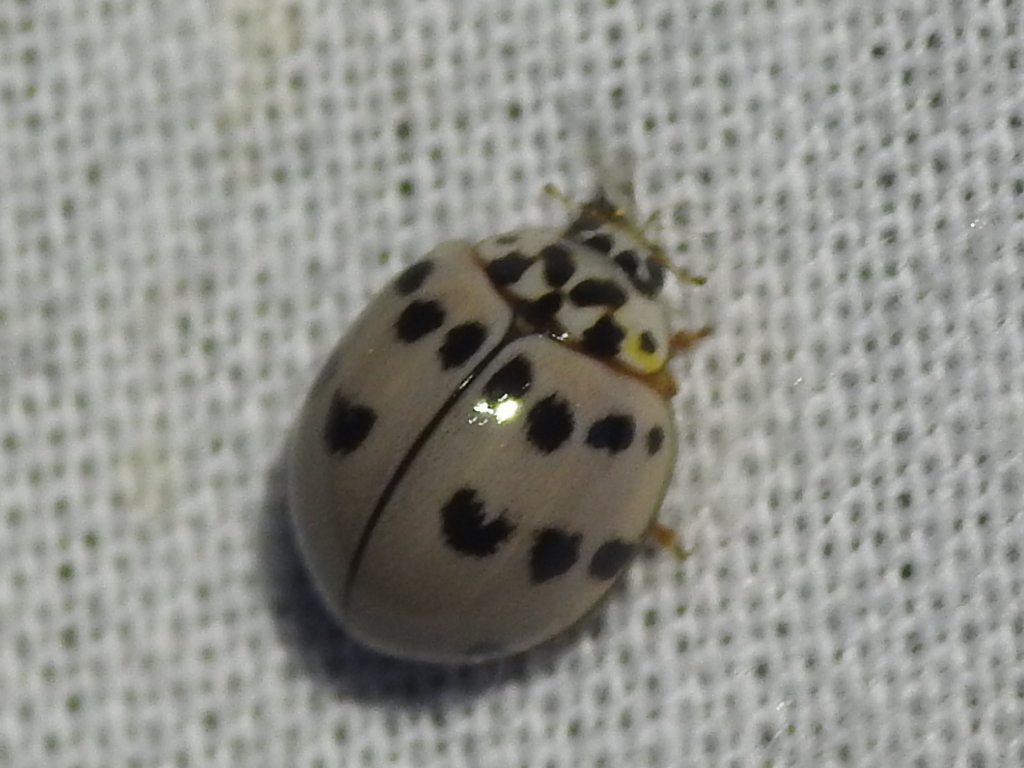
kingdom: Animalia
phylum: Arthropoda
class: Insecta
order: Coleoptera
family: Coccinellidae
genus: Olla
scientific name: Olla v-nigrum
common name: Ashy gray lady beetle
